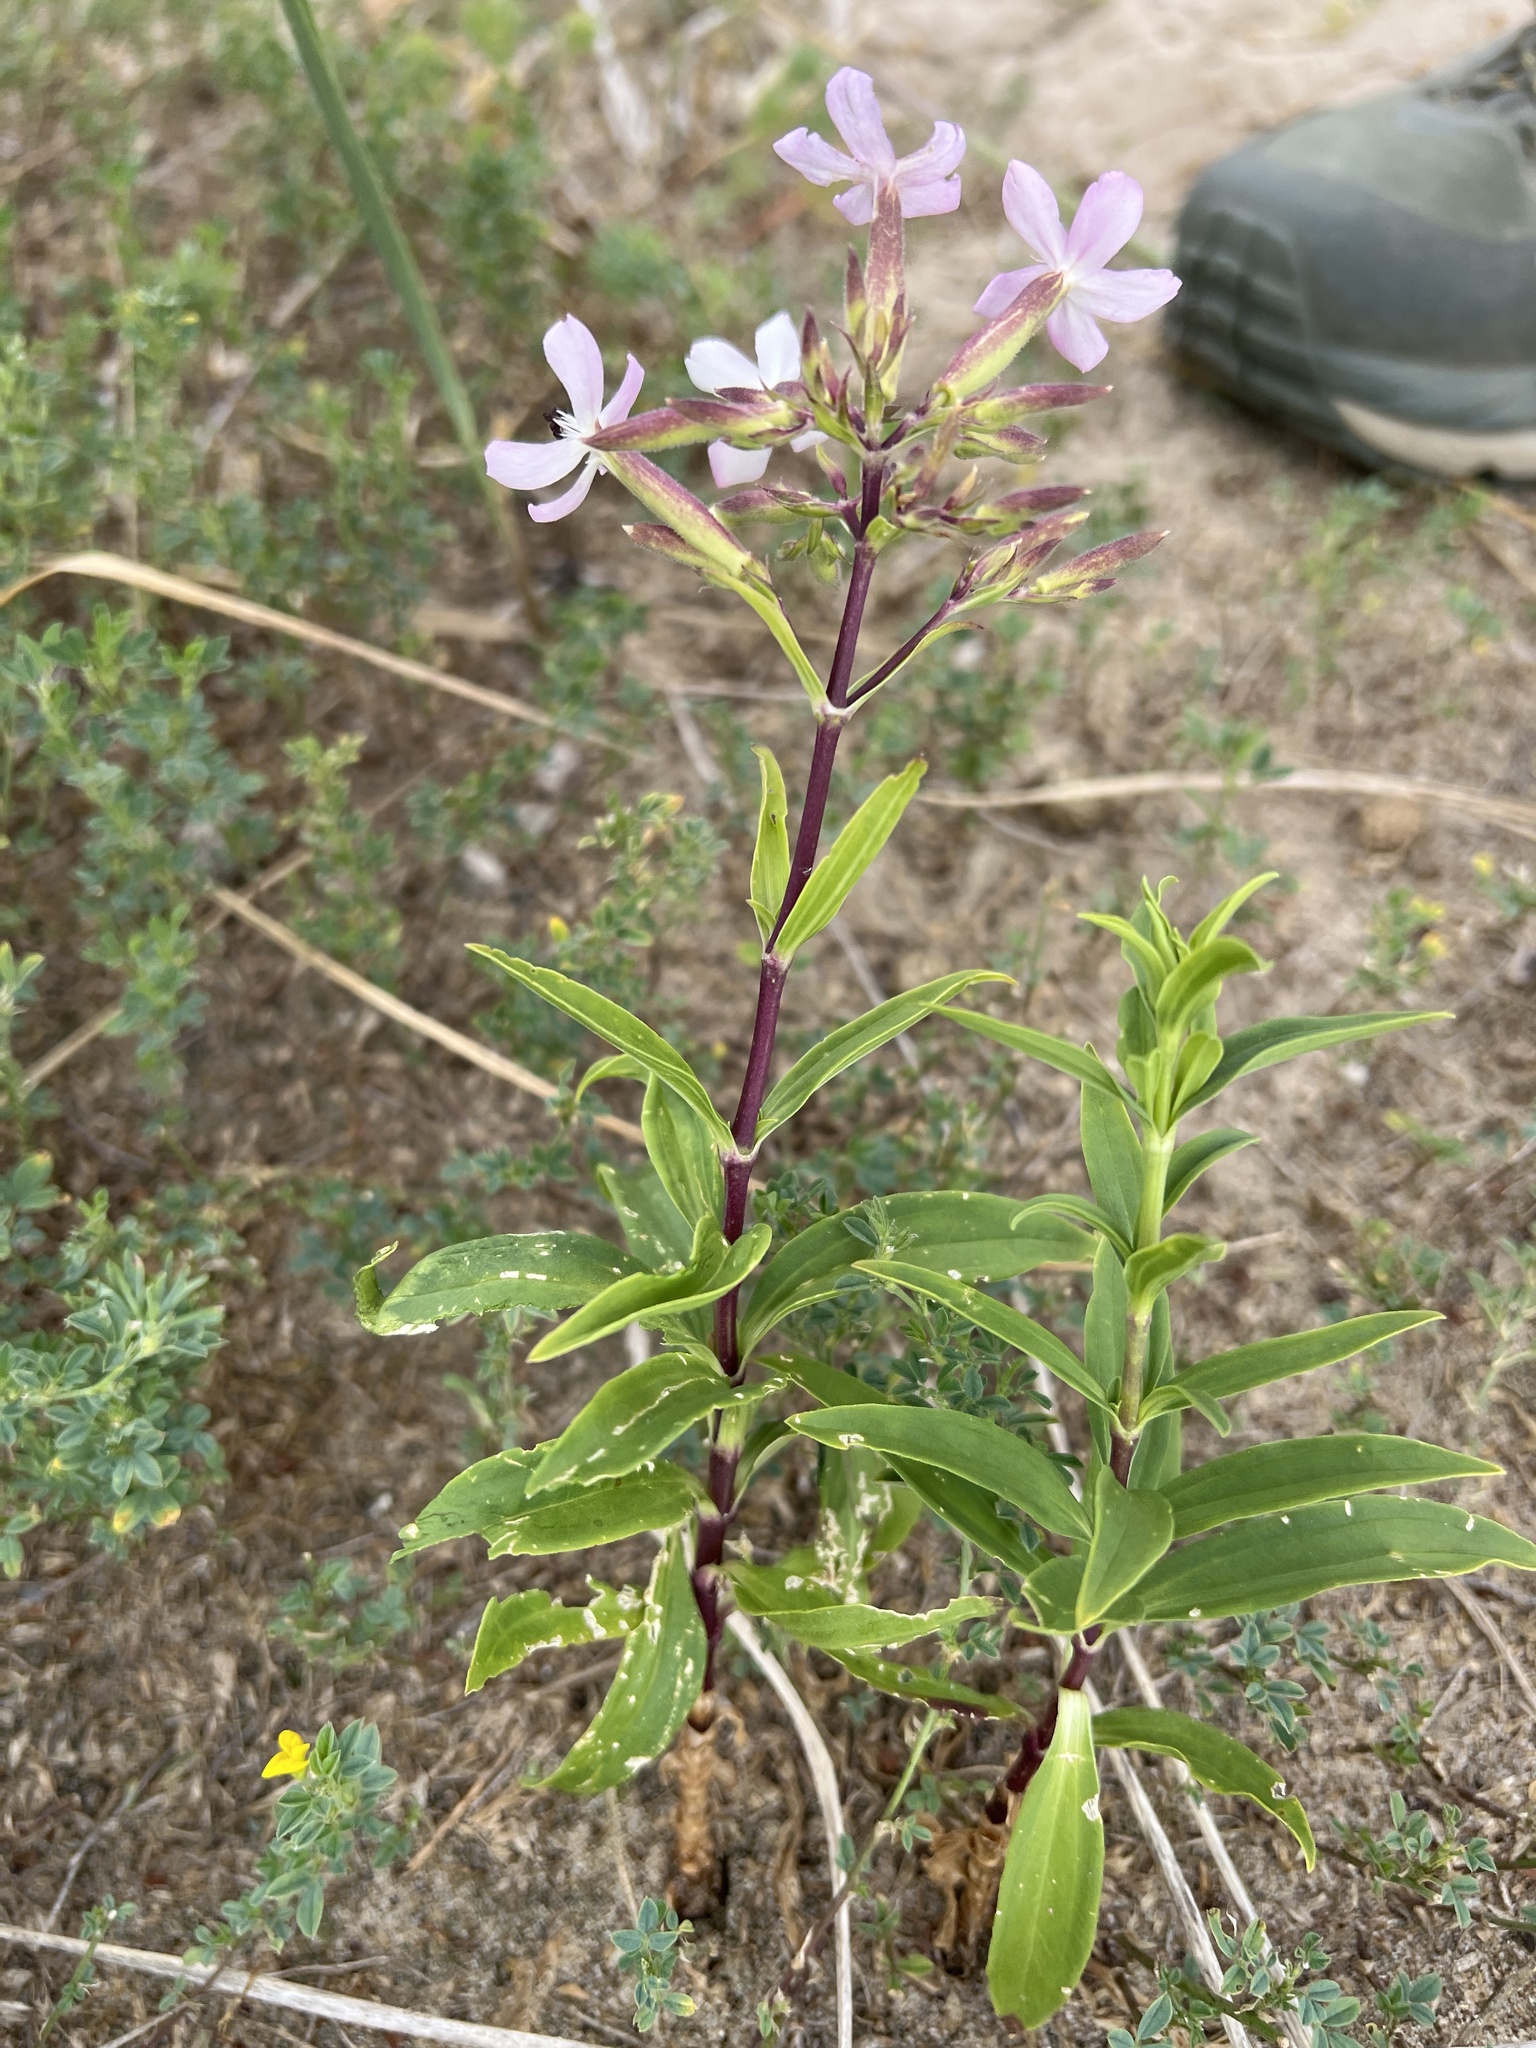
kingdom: Plantae
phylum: Tracheophyta
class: Magnoliopsida
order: Caryophyllales
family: Caryophyllaceae
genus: Saponaria
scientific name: Saponaria officinalis
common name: Soapwort
